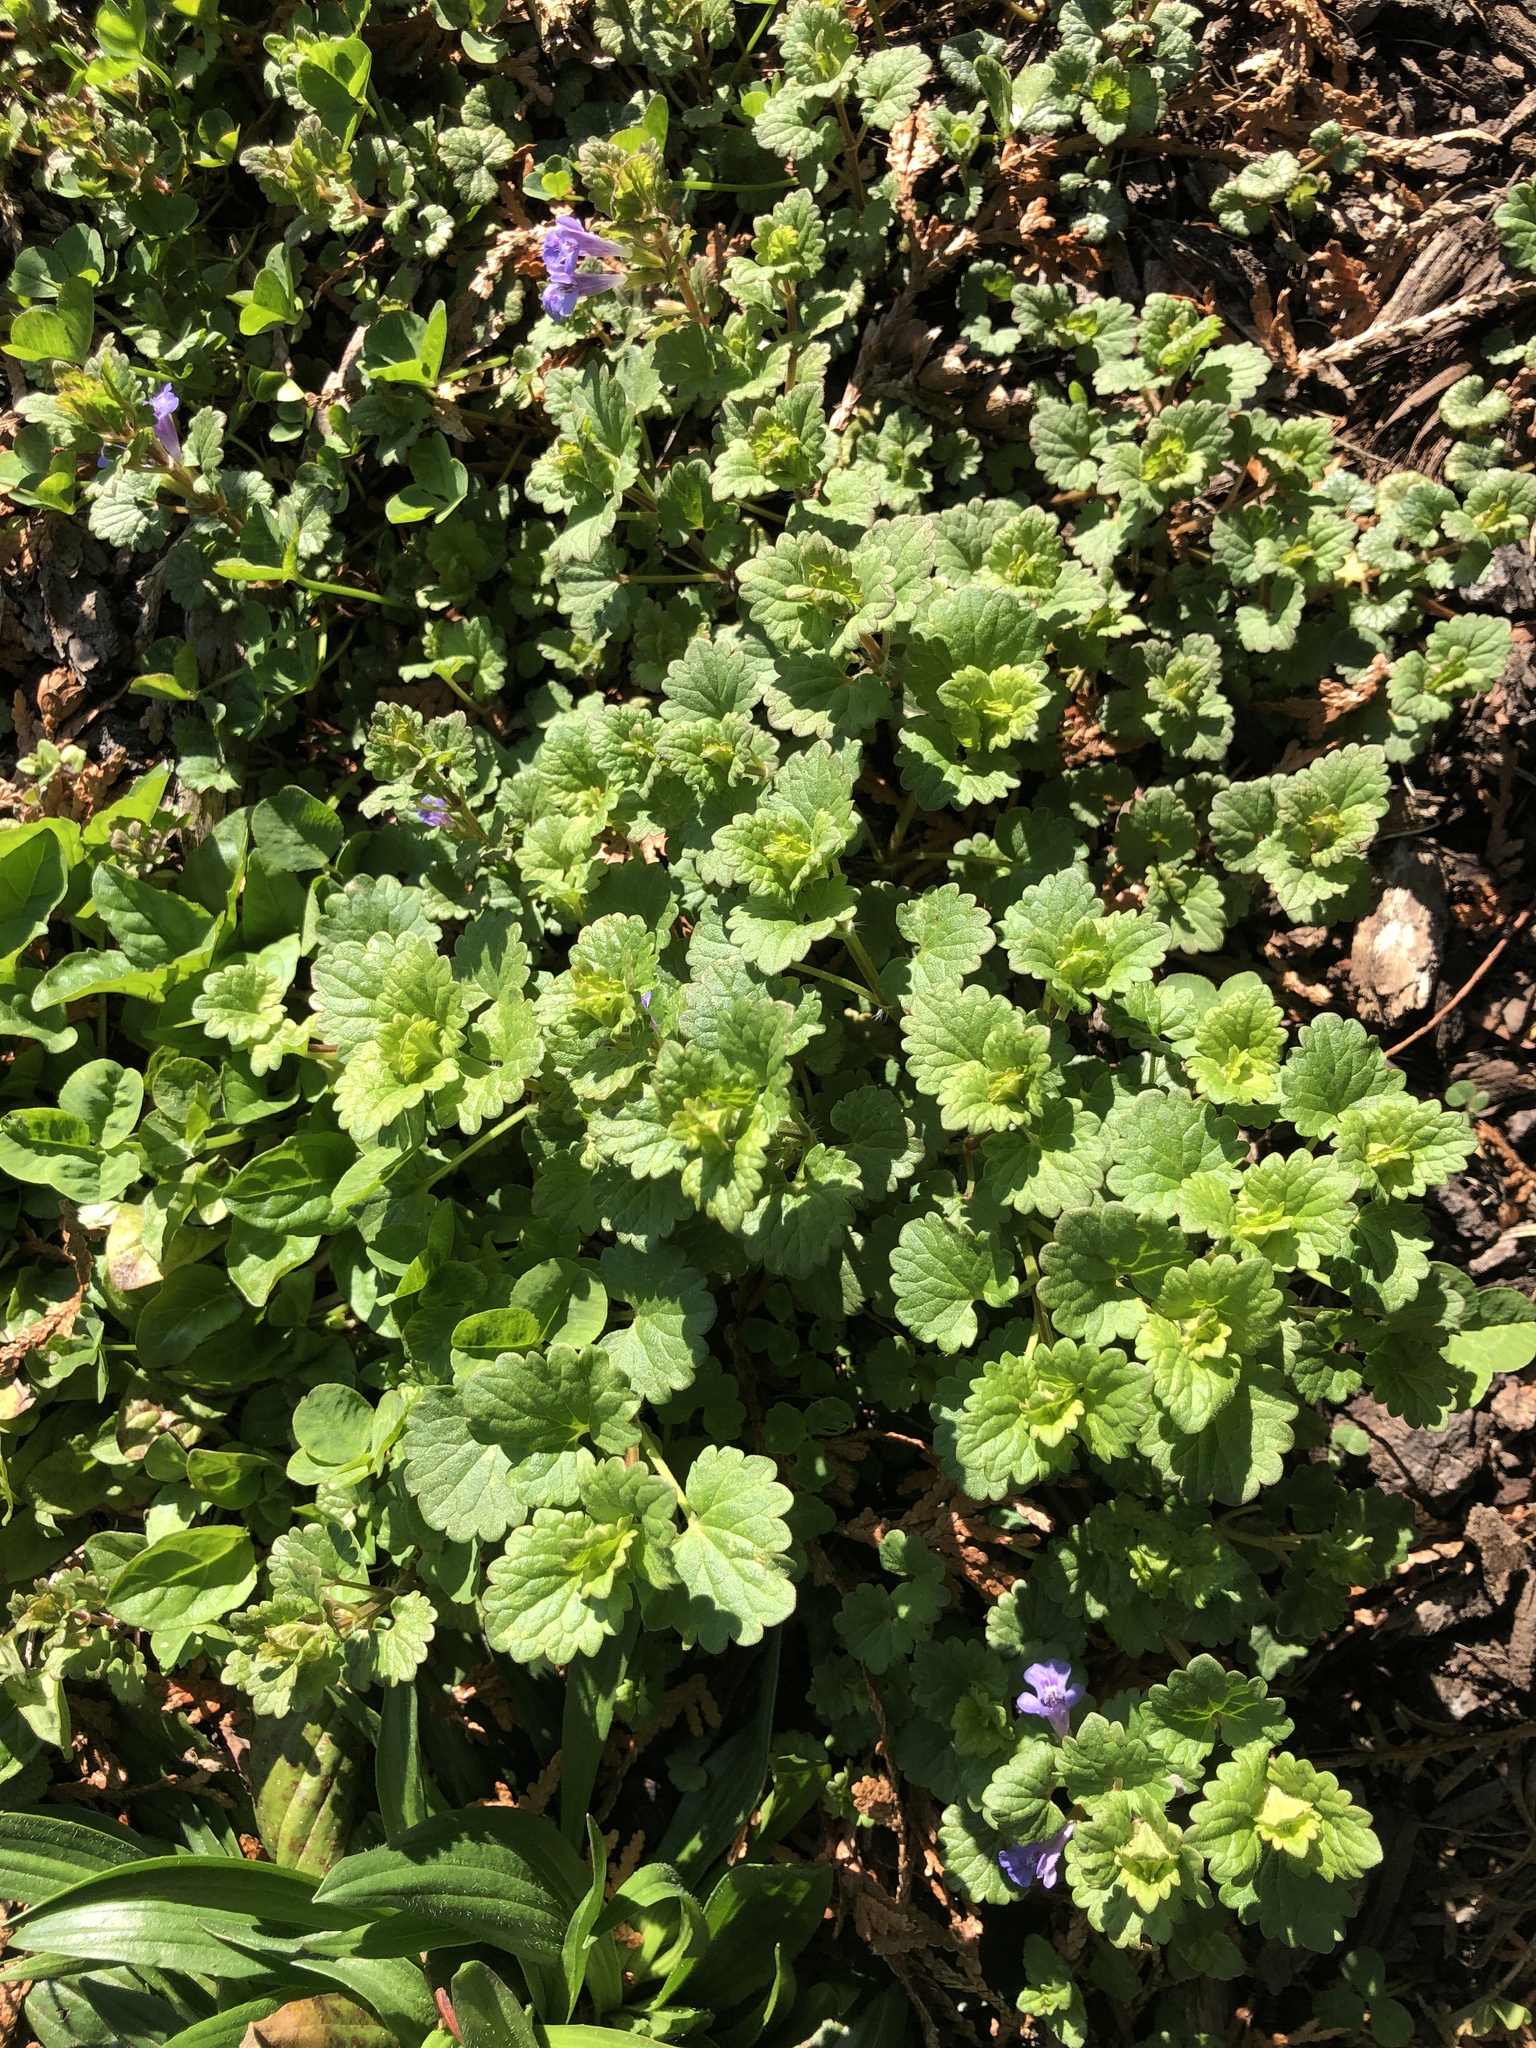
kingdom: Plantae
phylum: Tracheophyta
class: Magnoliopsida
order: Lamiales
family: Lamiaceae
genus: Glechoma
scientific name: Glechoma hederacea
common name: Ground ivy
